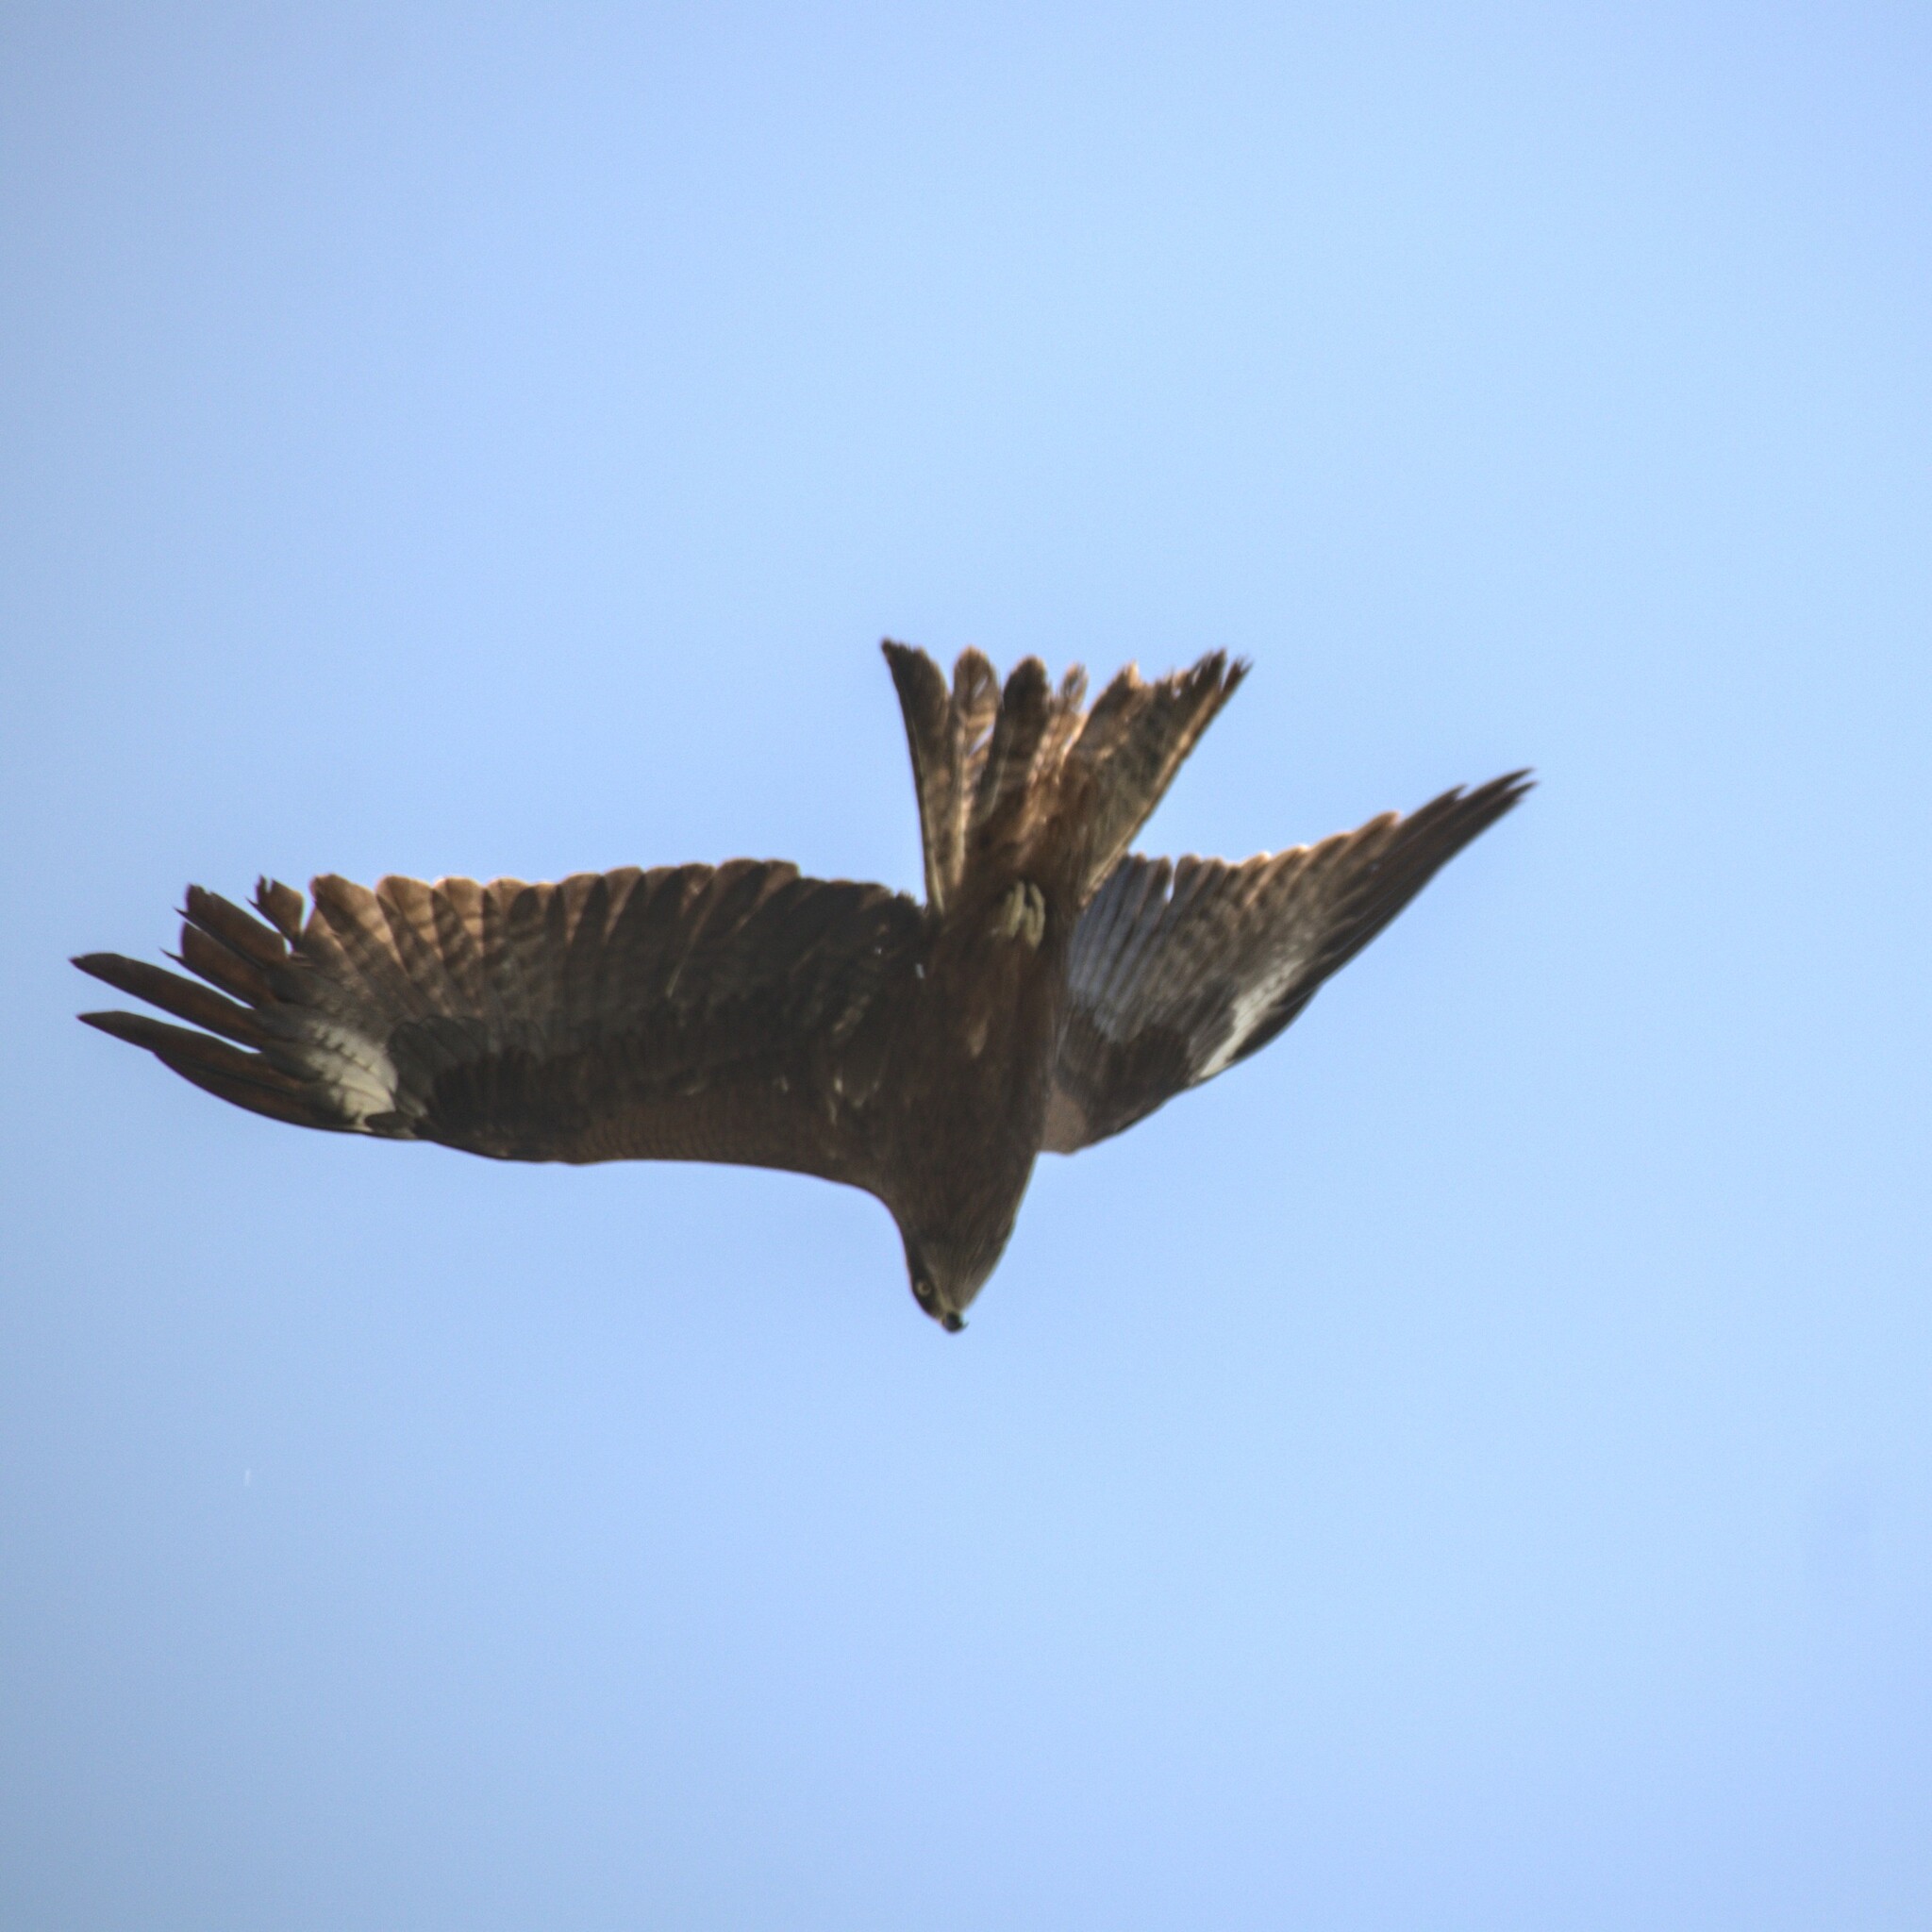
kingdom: Animalia
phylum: Chordata
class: Aves
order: Accipitriformes
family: Accipitridae
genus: Milvus
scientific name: Milvus migrans
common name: Black kite
